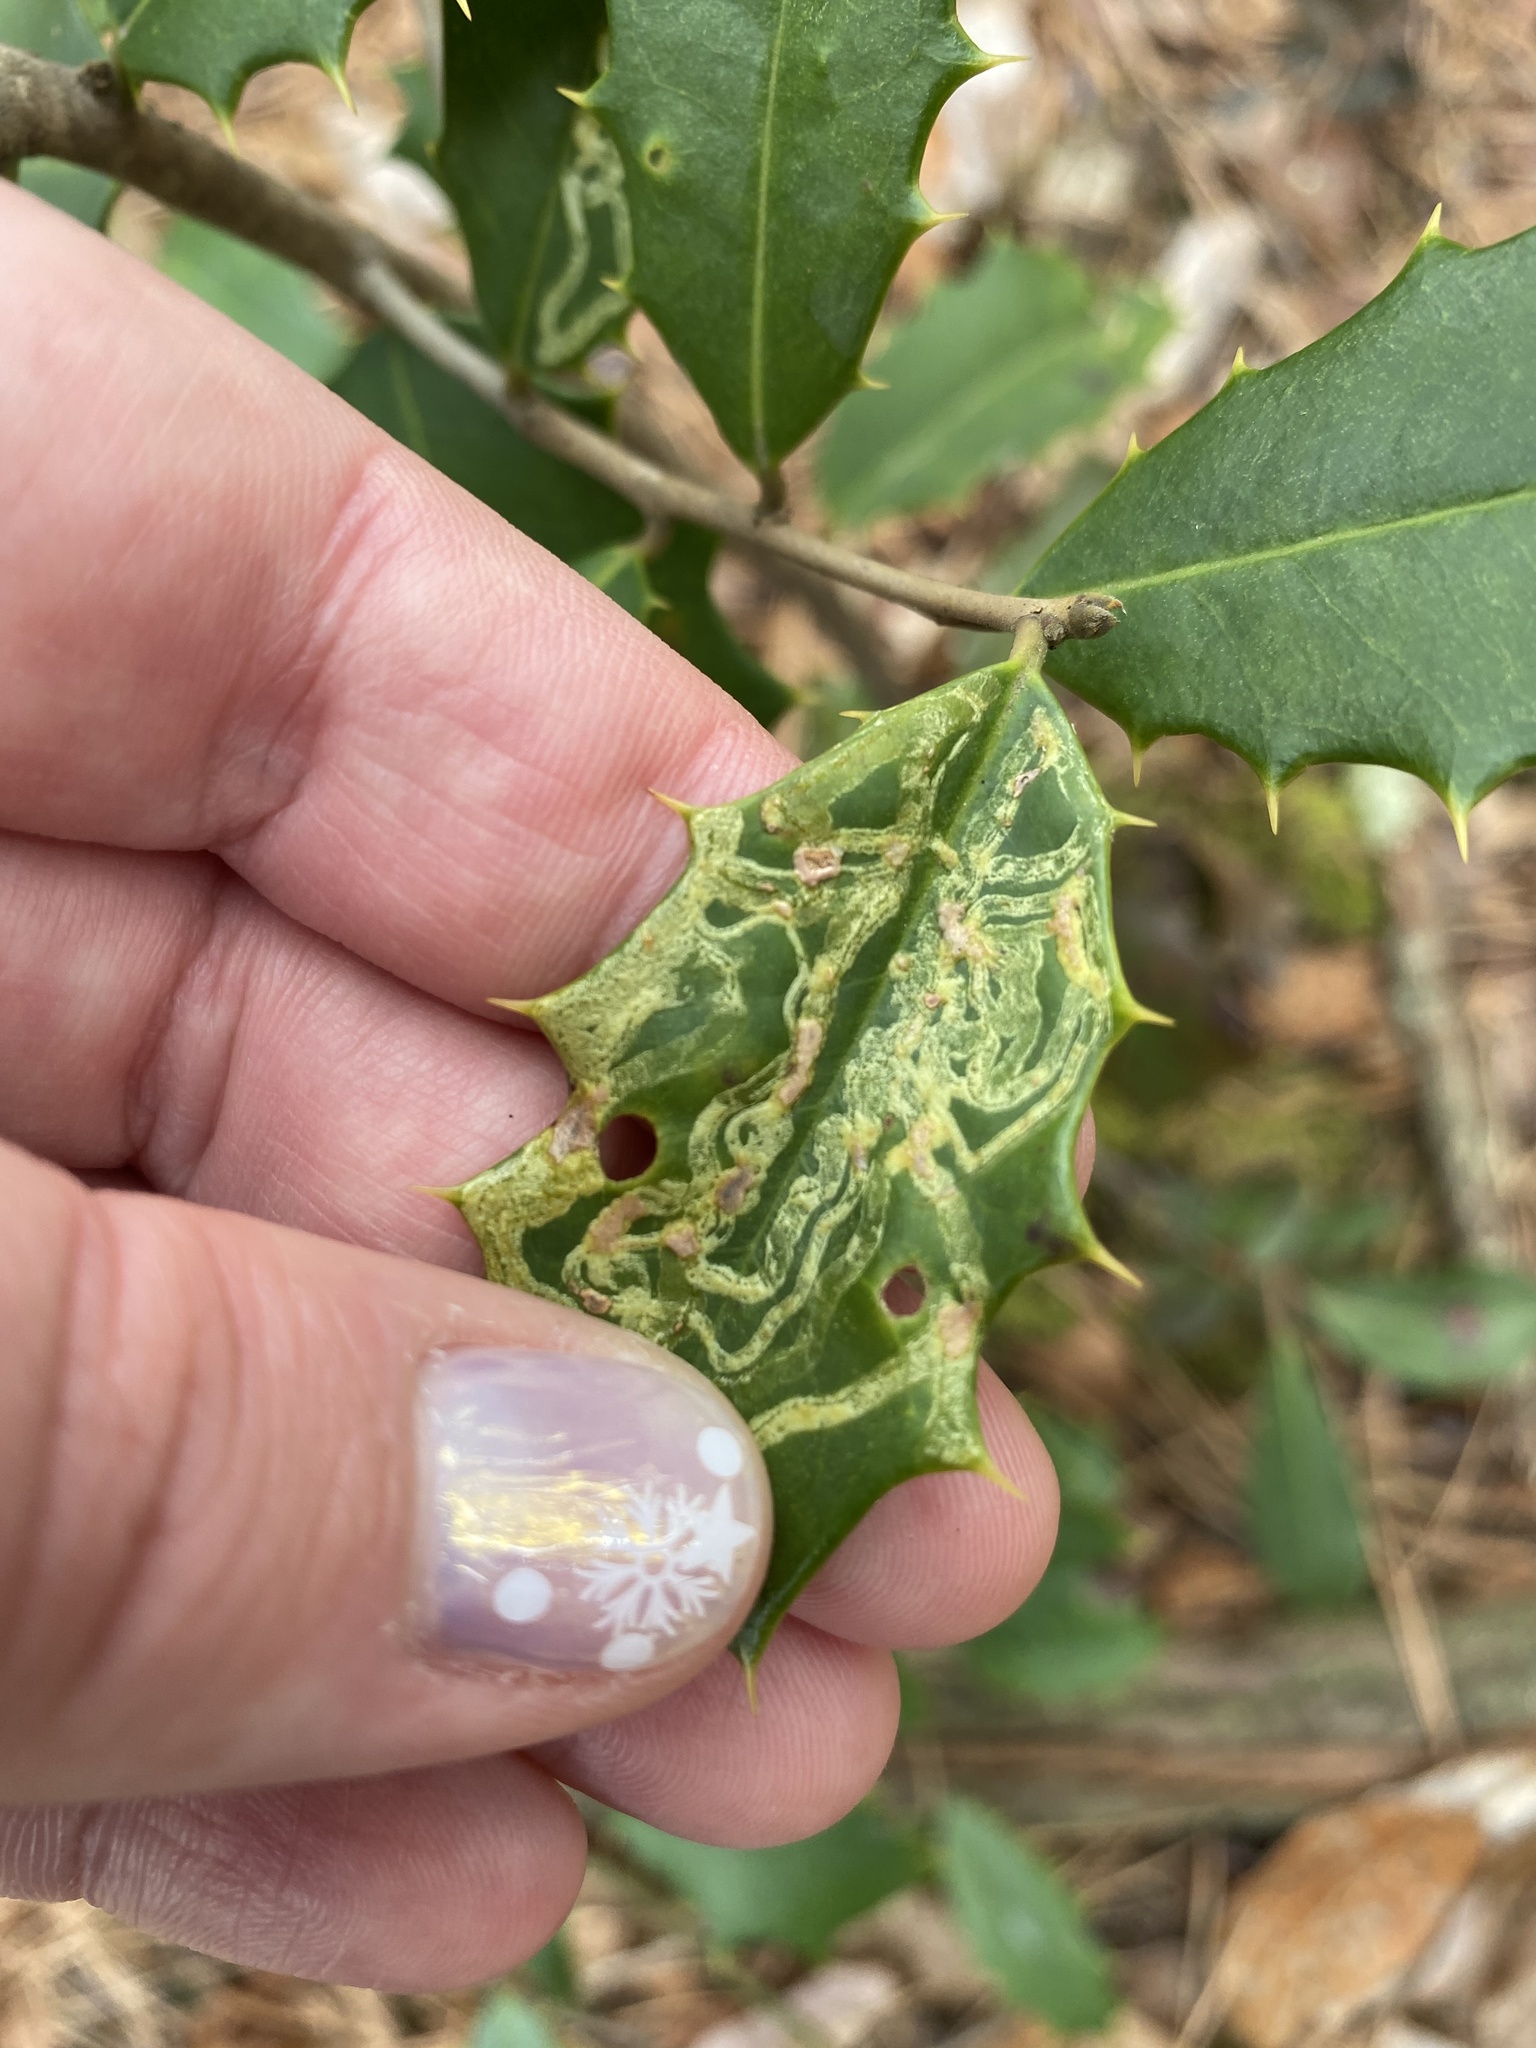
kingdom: Animalia
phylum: Arthropoda
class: Insecta
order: Diptera
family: Agromyzidae
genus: Phytomyza
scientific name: Phytomyza opacae
